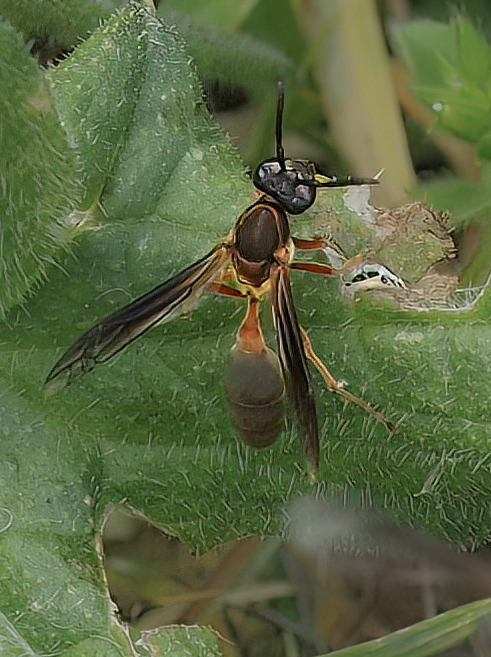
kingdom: Animalia
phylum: Arthropoda
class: Insecta
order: Hymenoptera
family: Eumenidae
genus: Polybia
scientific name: Polybia sericea
